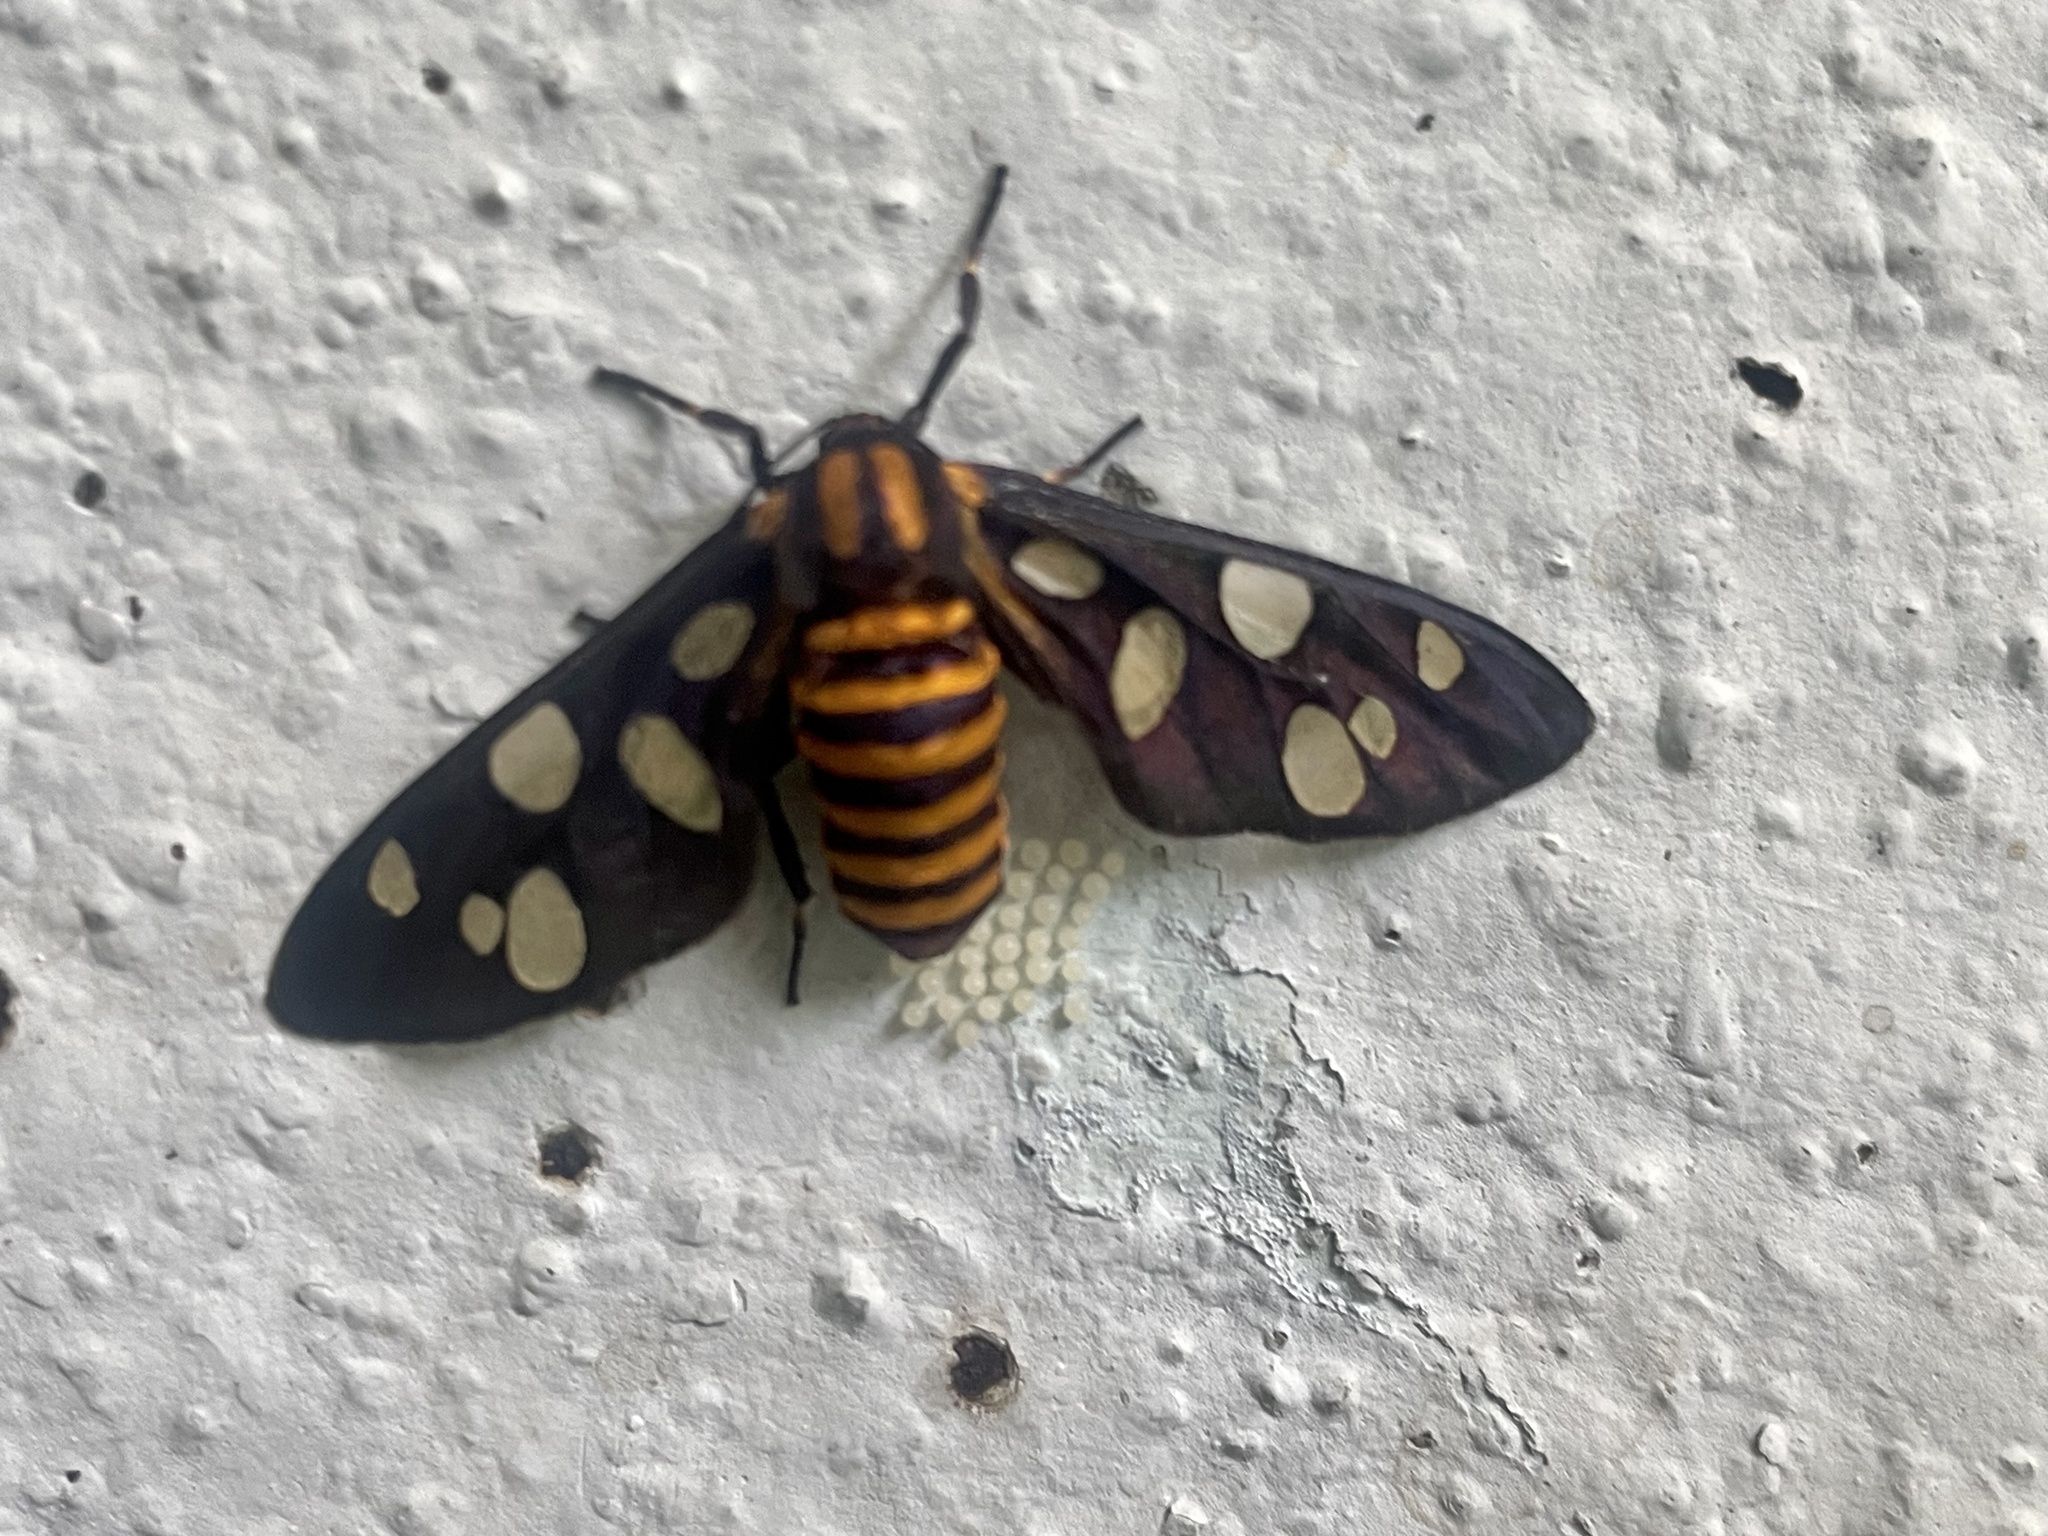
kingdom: Animalia
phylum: Arthropoda
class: Insecta
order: Lepidoptera
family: Erebidae
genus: Amata
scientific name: Amata passalis
